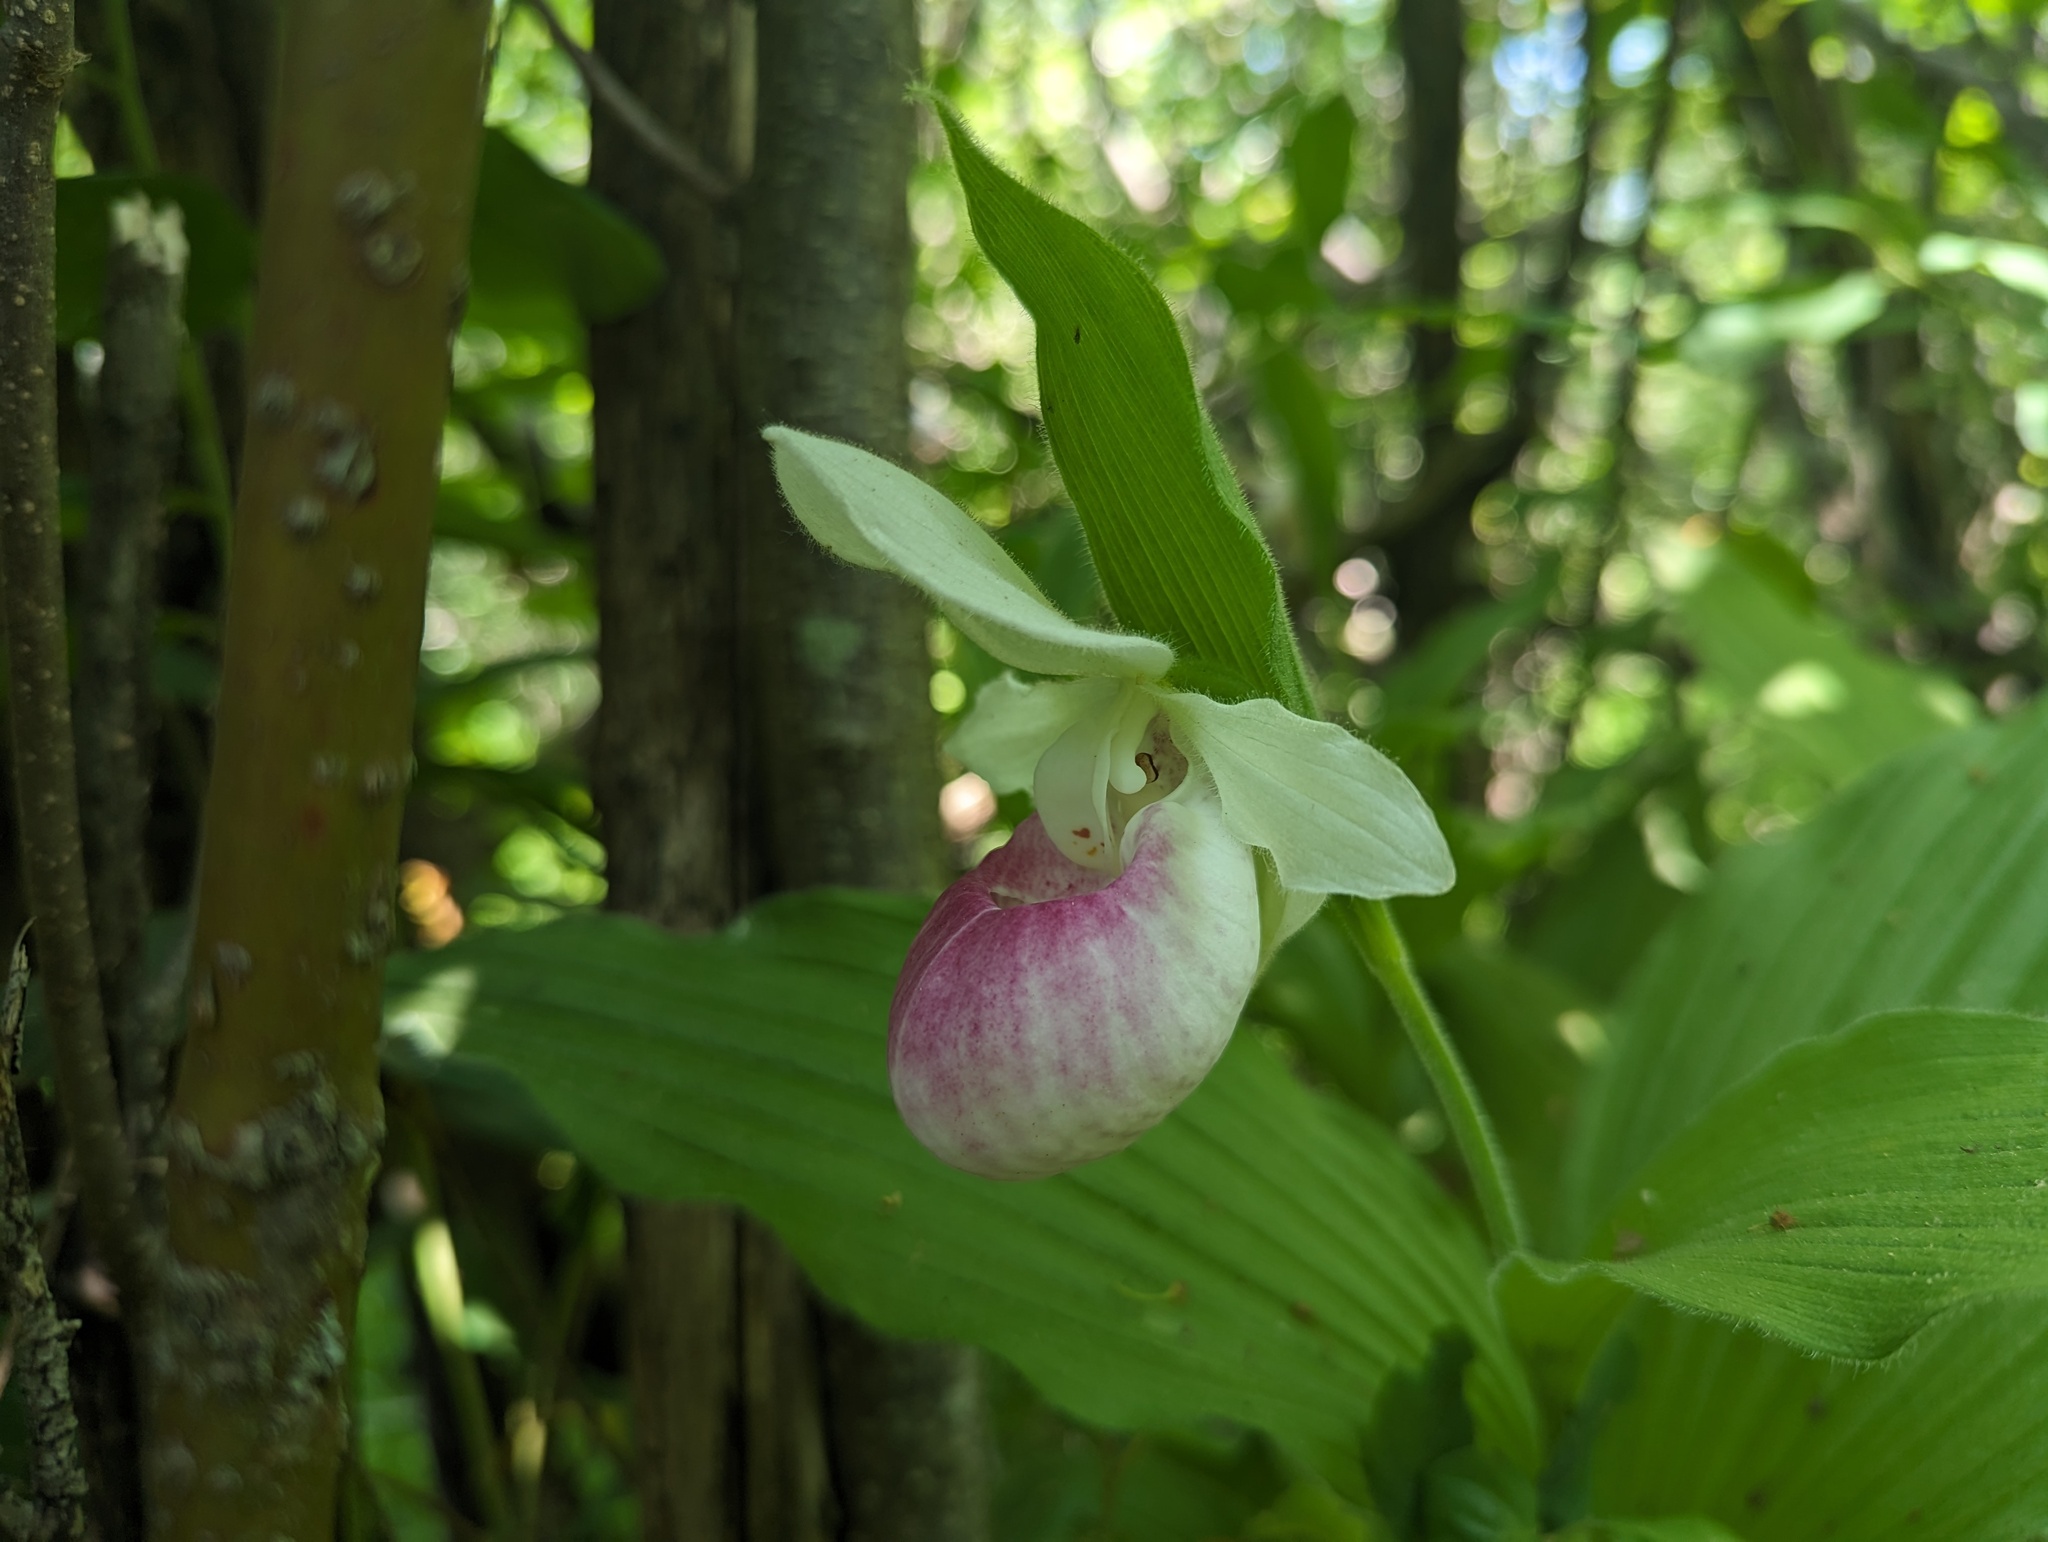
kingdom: Plantae
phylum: Tracheophyta
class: Liliopsida
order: Asparagales
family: Orchidaceae
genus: Cypripedium
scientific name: Cypripedium reginae
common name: Queen lady's-slipper
